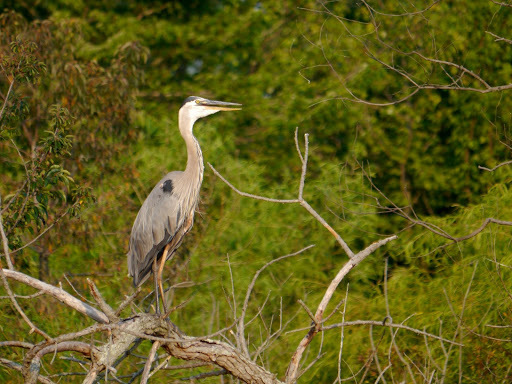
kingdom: Animalia
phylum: Chordata
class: Aves
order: Pelecaniformes
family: Ardeidae
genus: Ardea
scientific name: Ardea herodias
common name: Great blue heron
